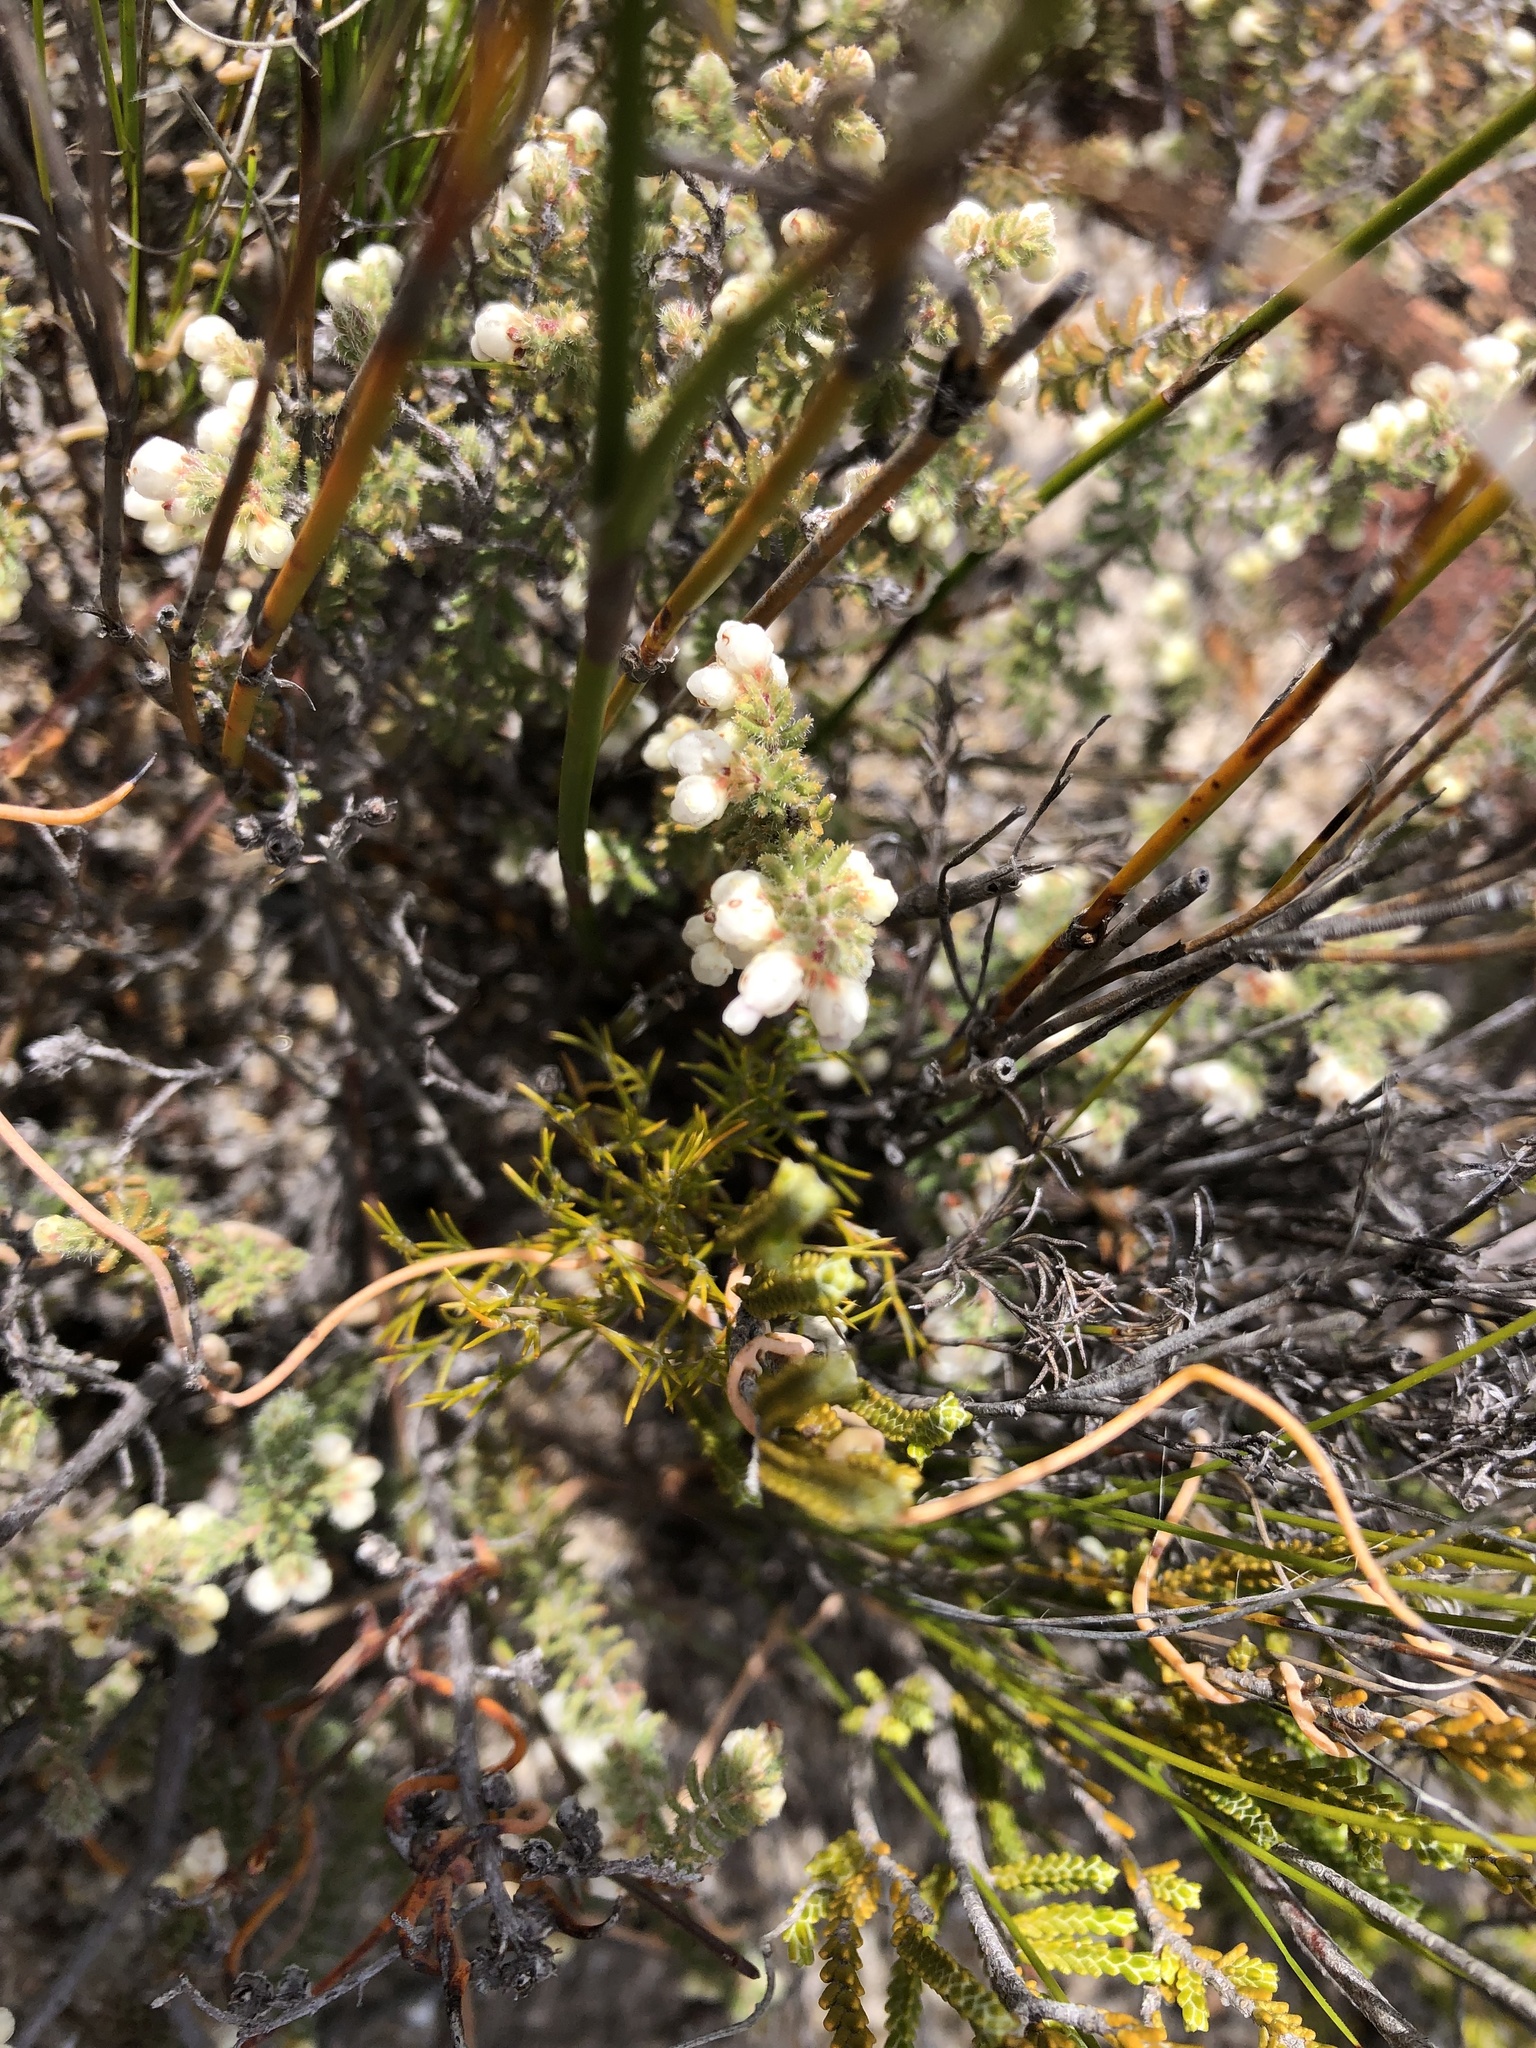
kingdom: Plantae
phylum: Tracheophyta
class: Magnoliopsida
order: Ericales
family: Ericaceae
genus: Erica
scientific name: Erica totta
